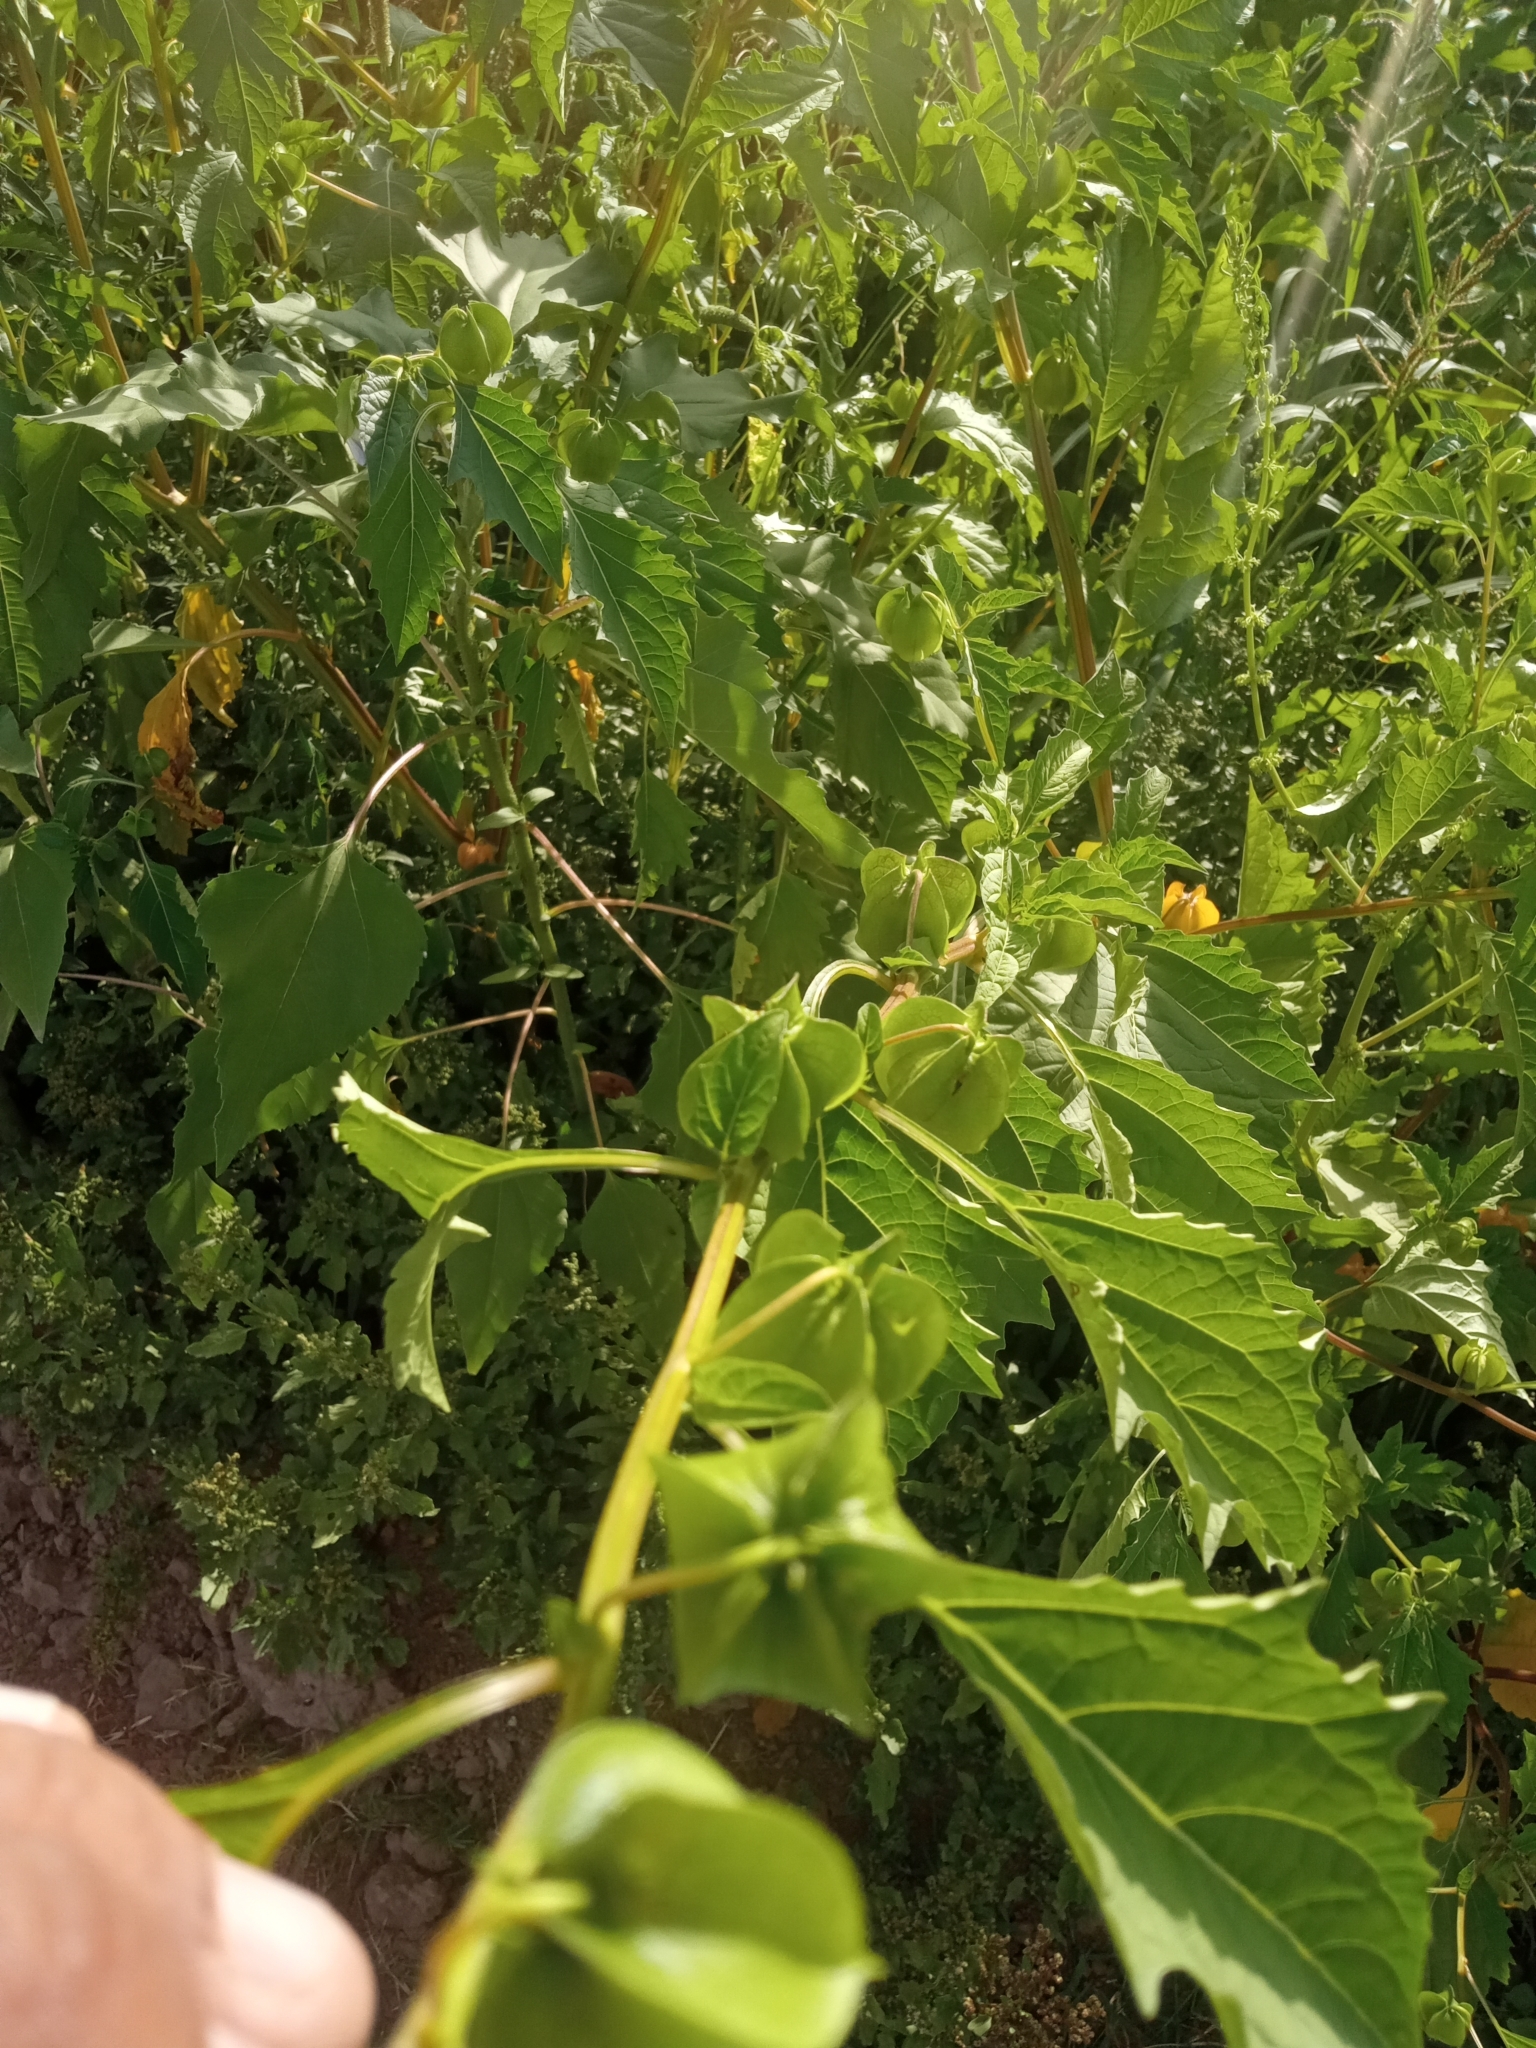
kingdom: Plantae
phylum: Tracheophyta
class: Magnoliopsida
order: Solanales
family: Solanaceae
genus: Nicandra
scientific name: Nicandra physalodes
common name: Apple-of-peru
